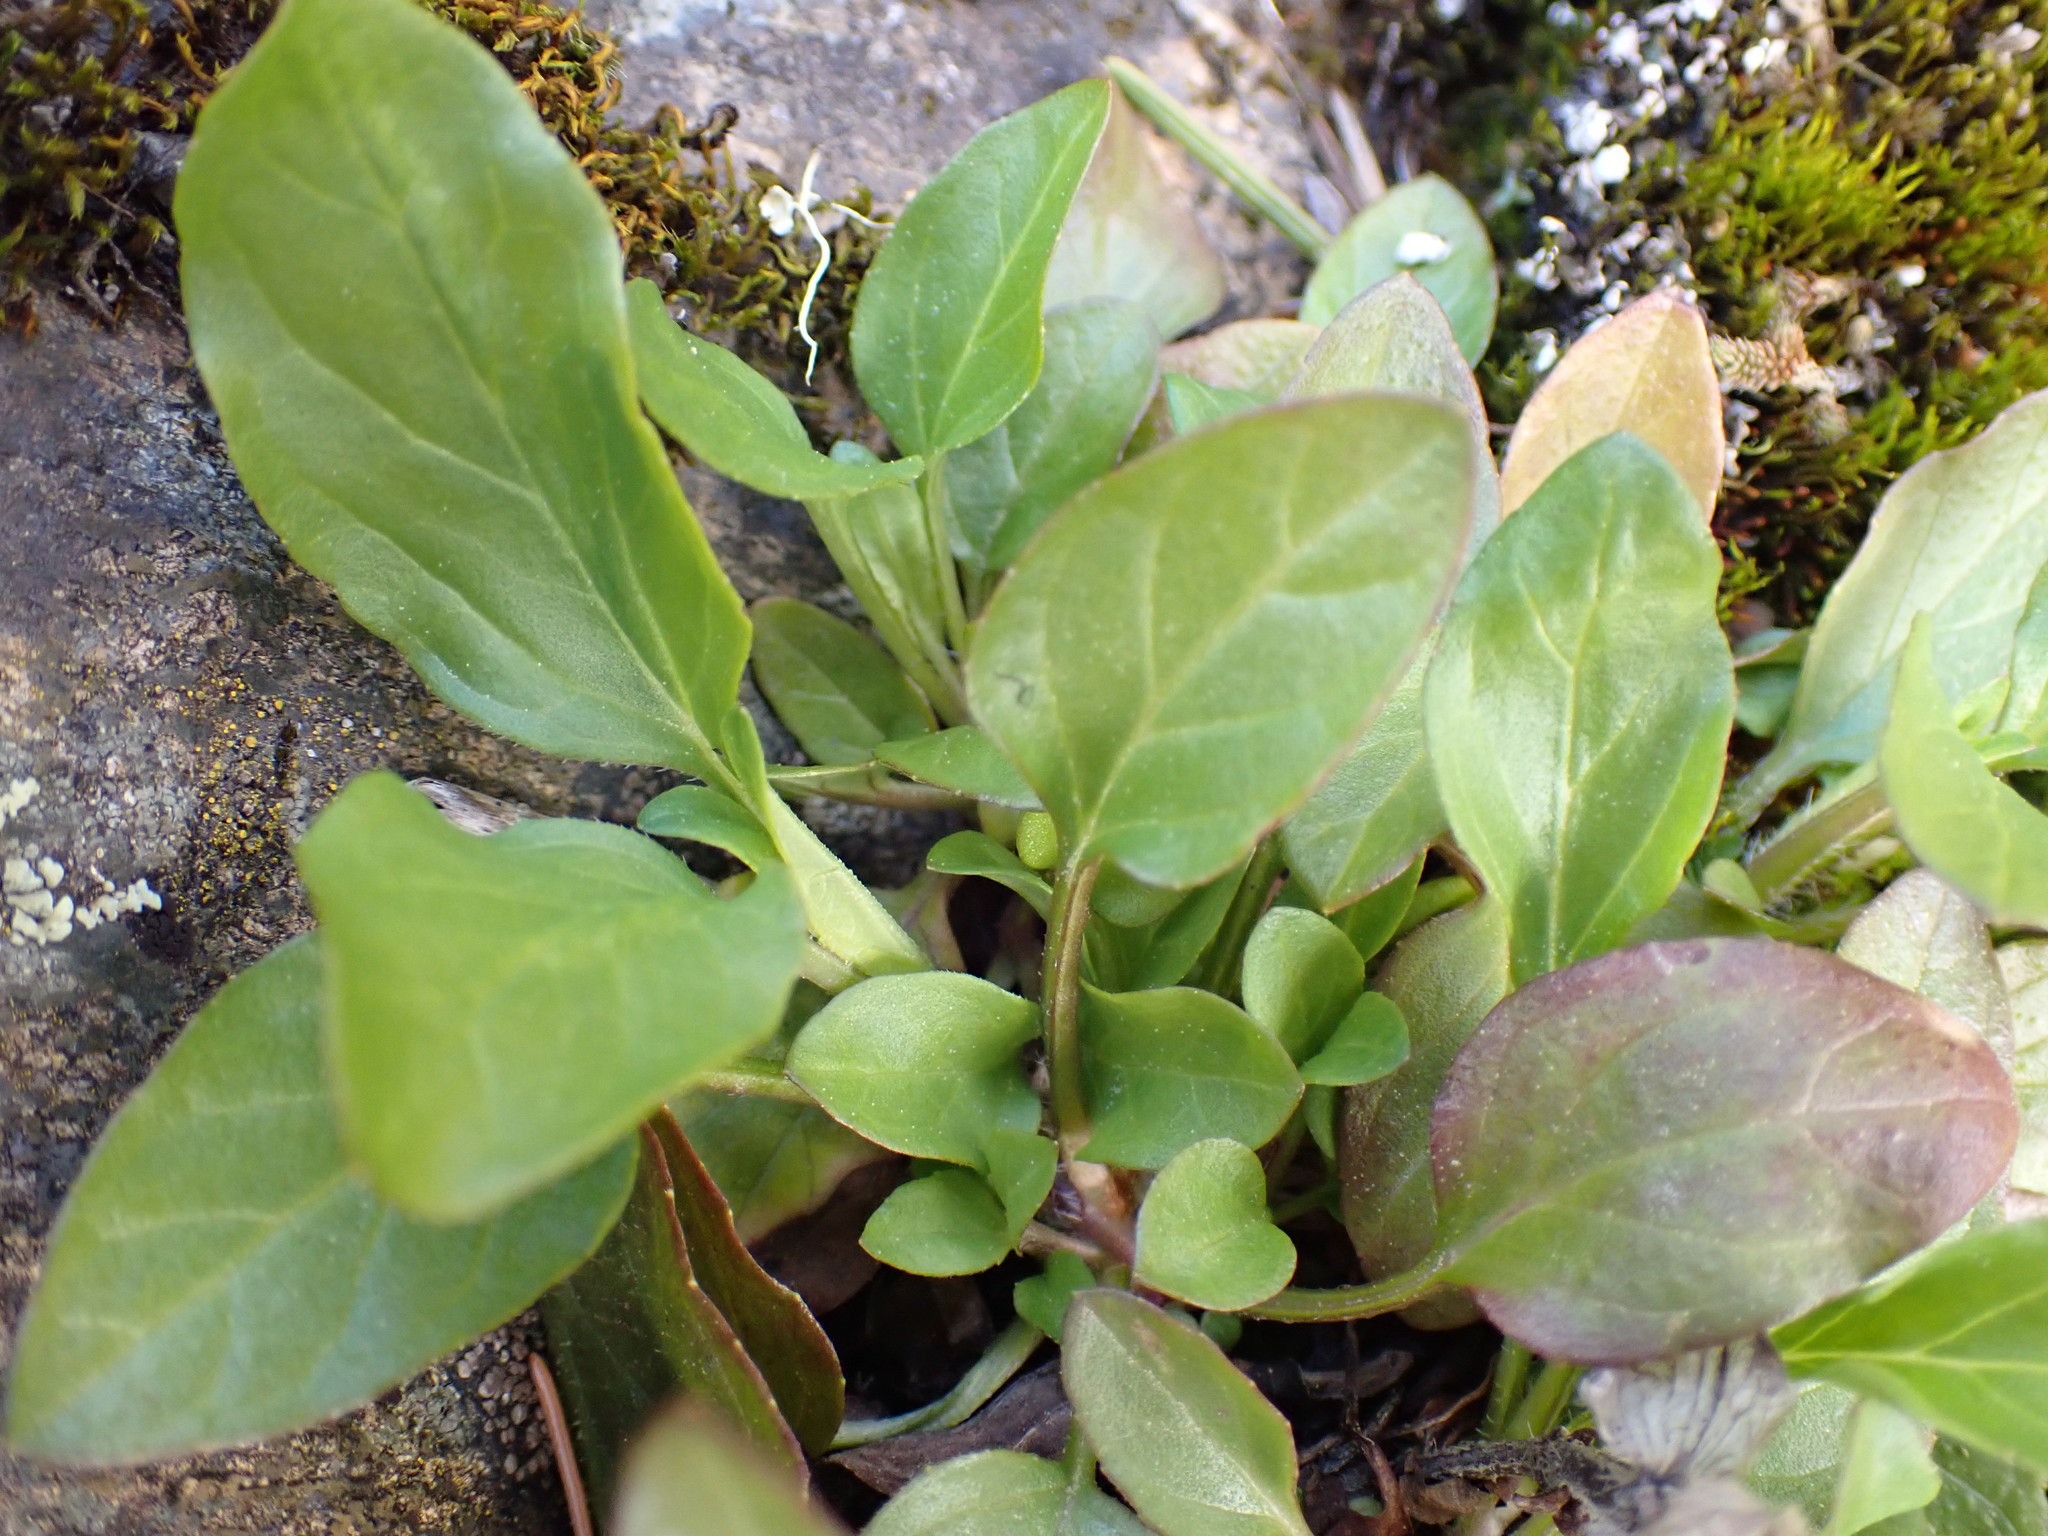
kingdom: Plantae
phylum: Tracheophyta
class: Magnoliopsida
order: Lamiales
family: Lamiaceae
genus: Prunella
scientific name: Prunella vulgaris
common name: Heal-all
